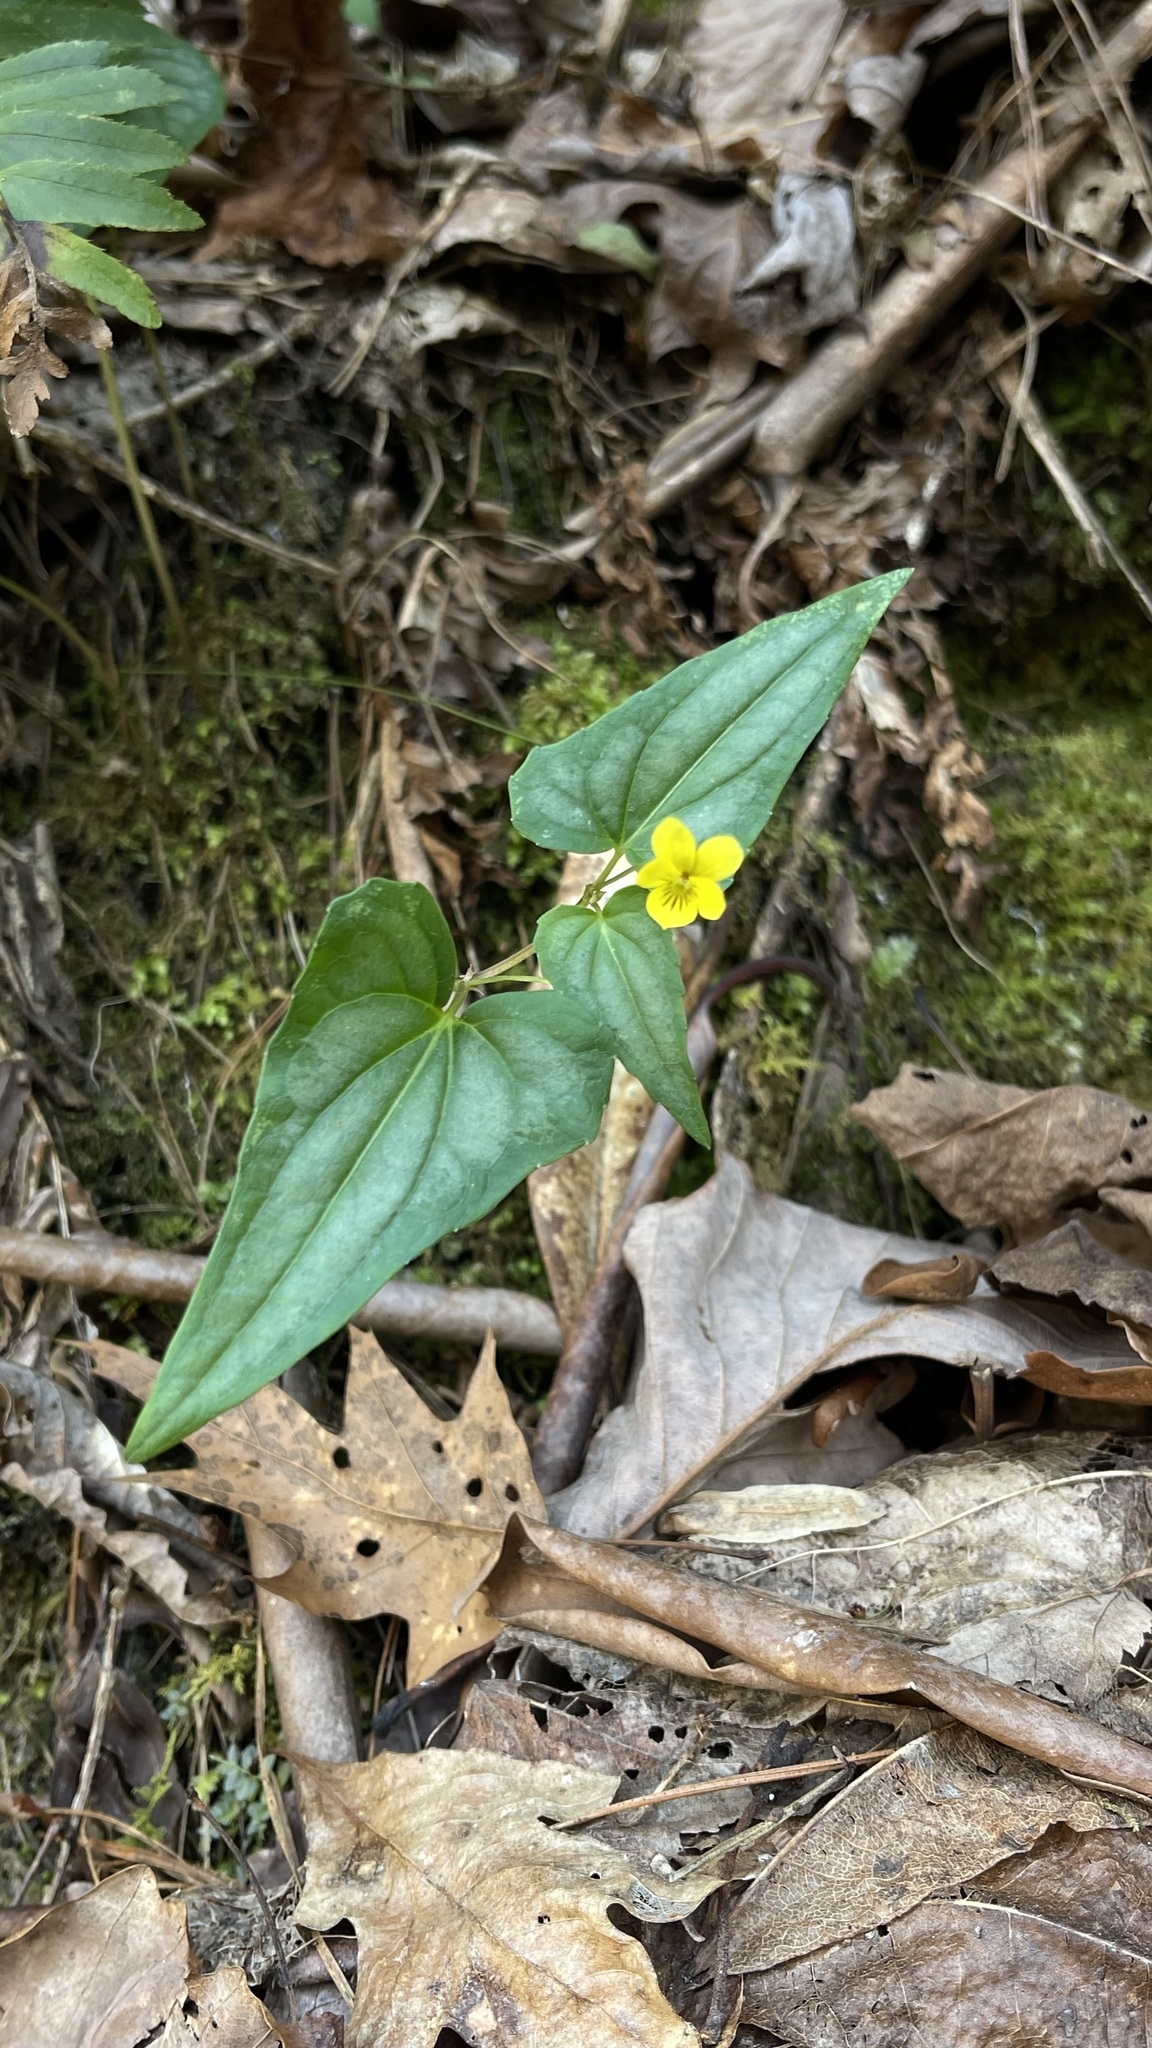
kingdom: Plantae
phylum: Tracheophyta
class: Magnoliopsida
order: Malpighiales
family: Violaceae
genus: Viola
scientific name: Viola hastata
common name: Spear-leaf violet
